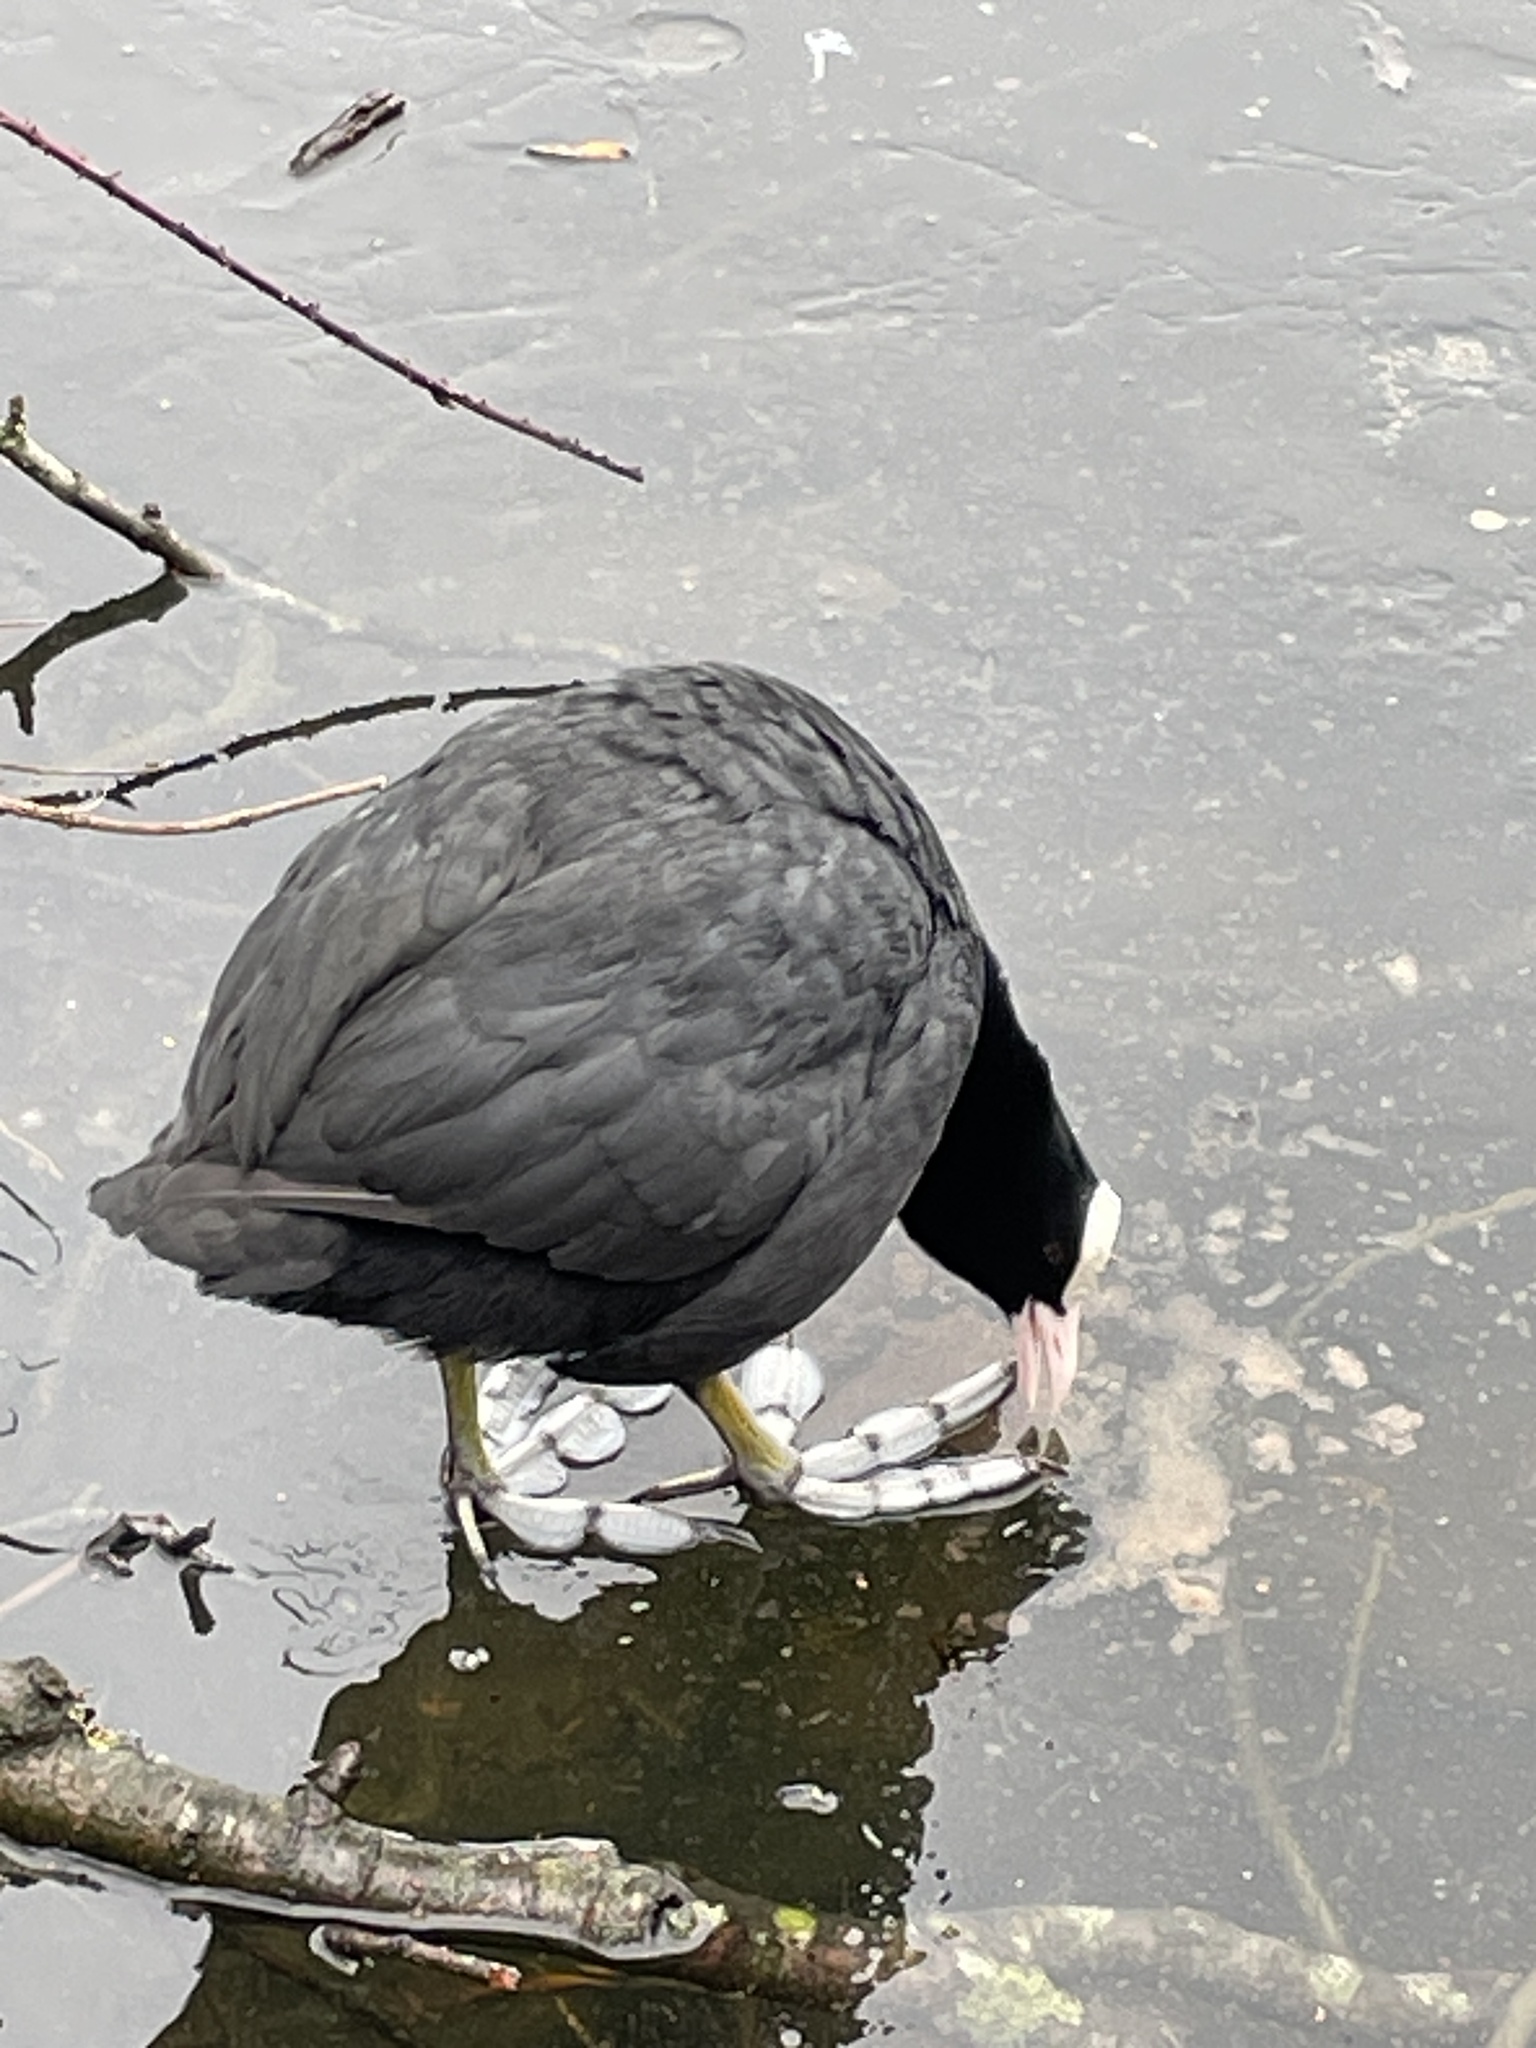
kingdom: Animalia
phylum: Chordata
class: Aves
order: Gruiformes
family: Rallidae
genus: Fulica
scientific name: Fulica atra
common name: Eurasian coot
